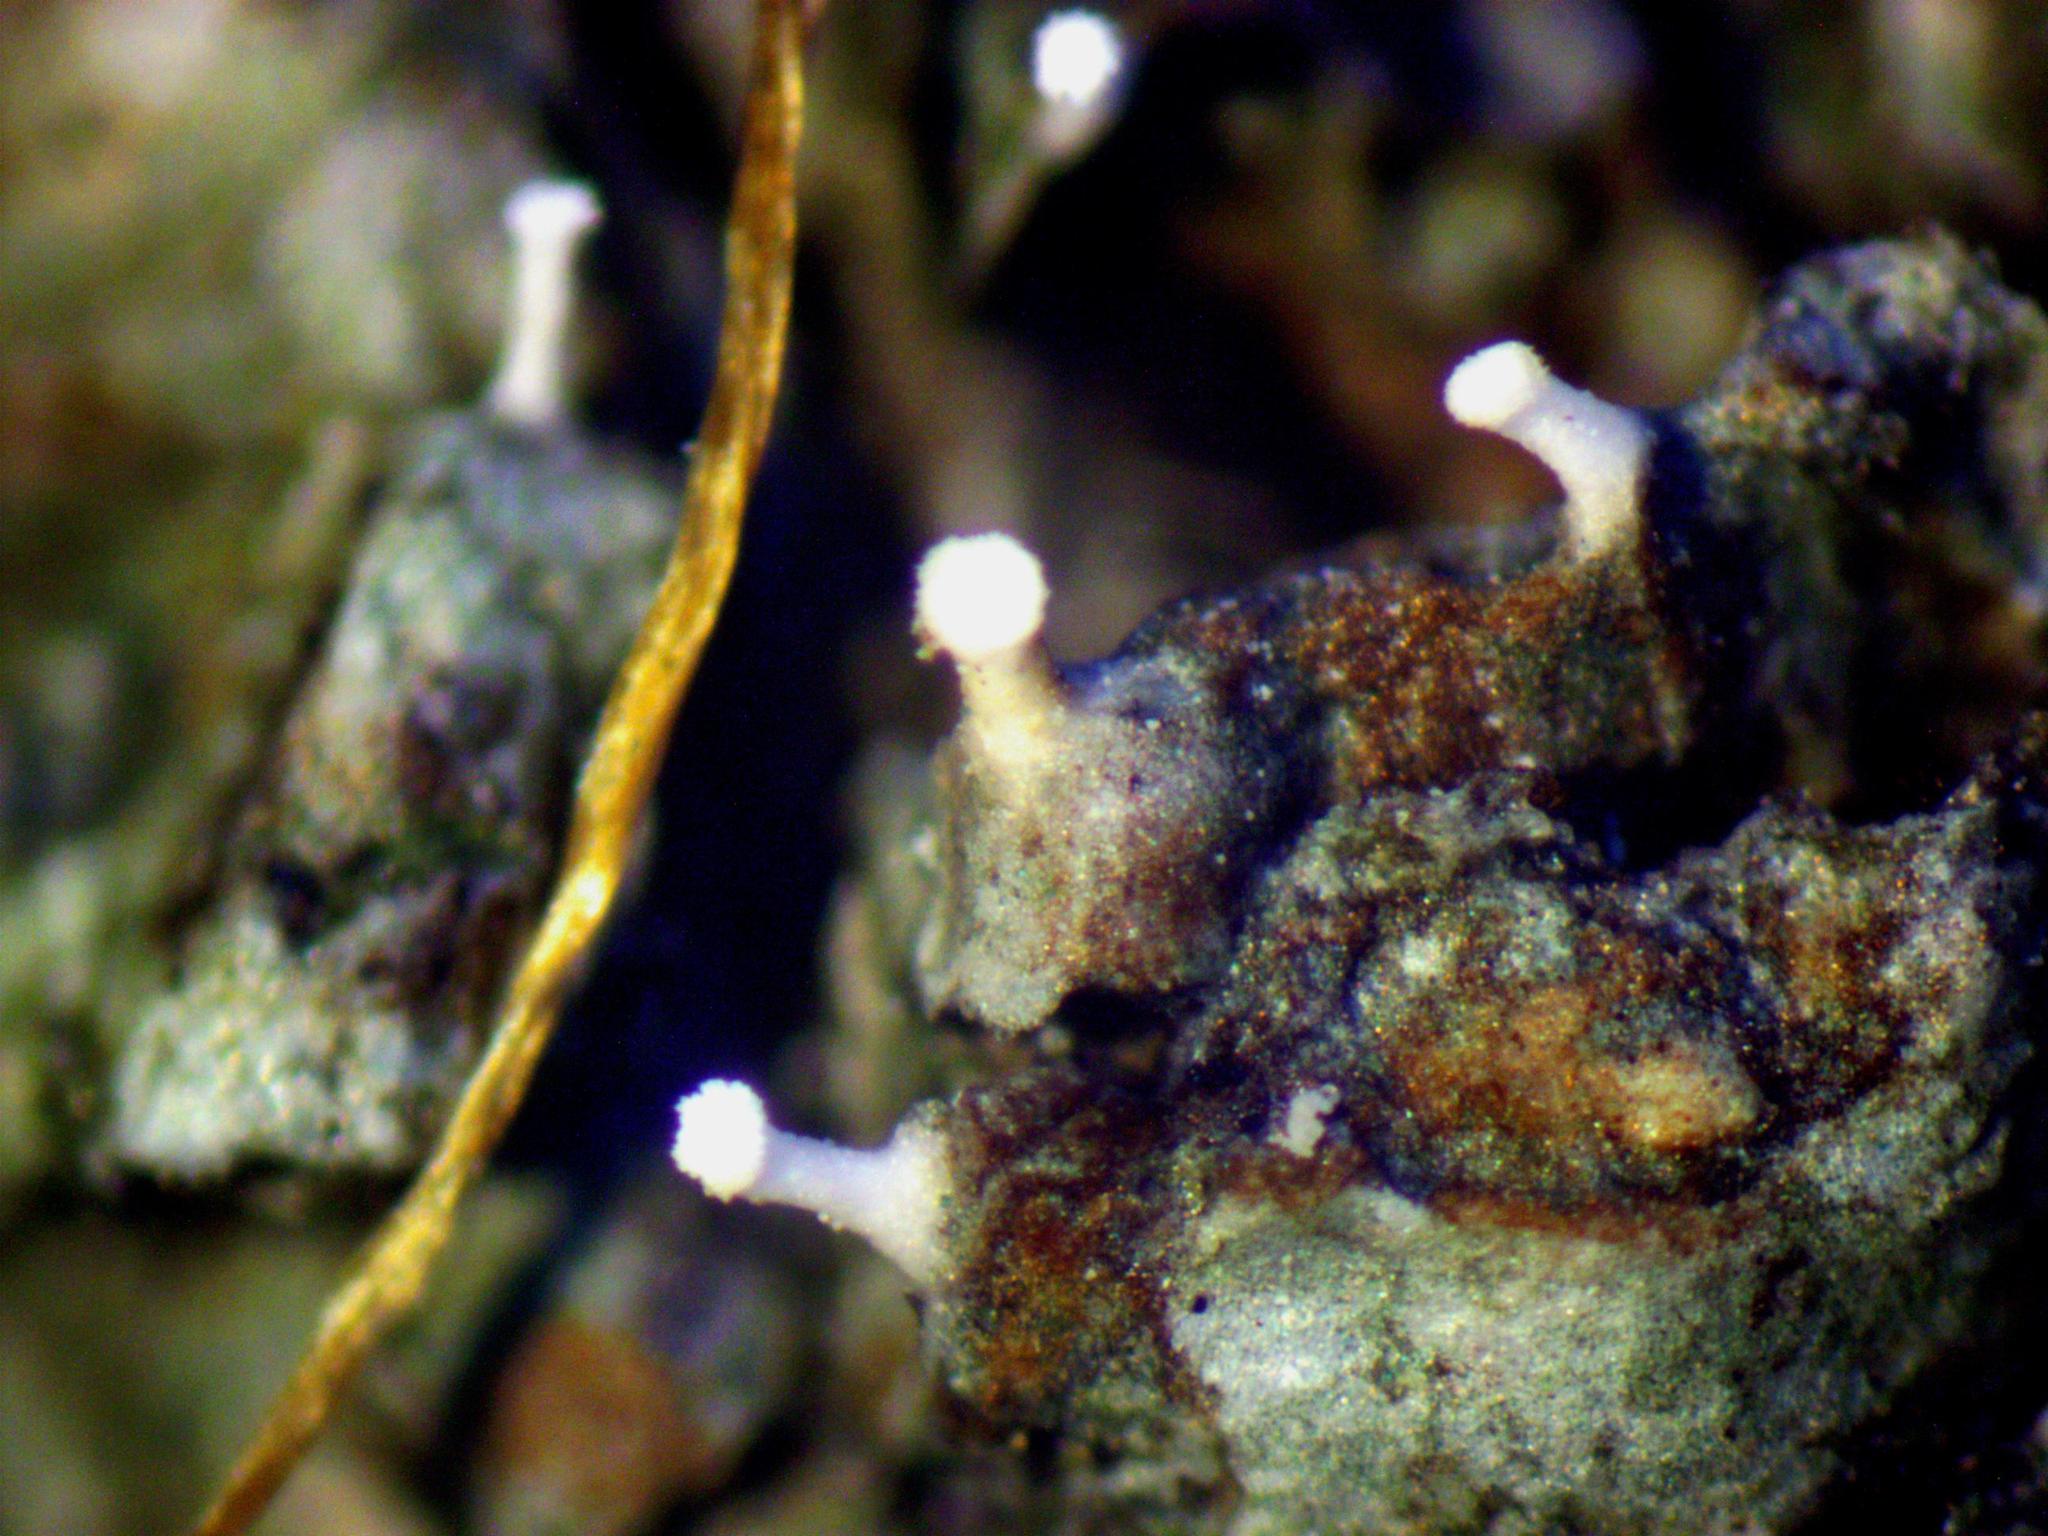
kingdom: Fungi
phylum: Ascomycota
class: Lecanoromycetes
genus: Dictyocatenulata
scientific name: Dictyocatenulata alba
